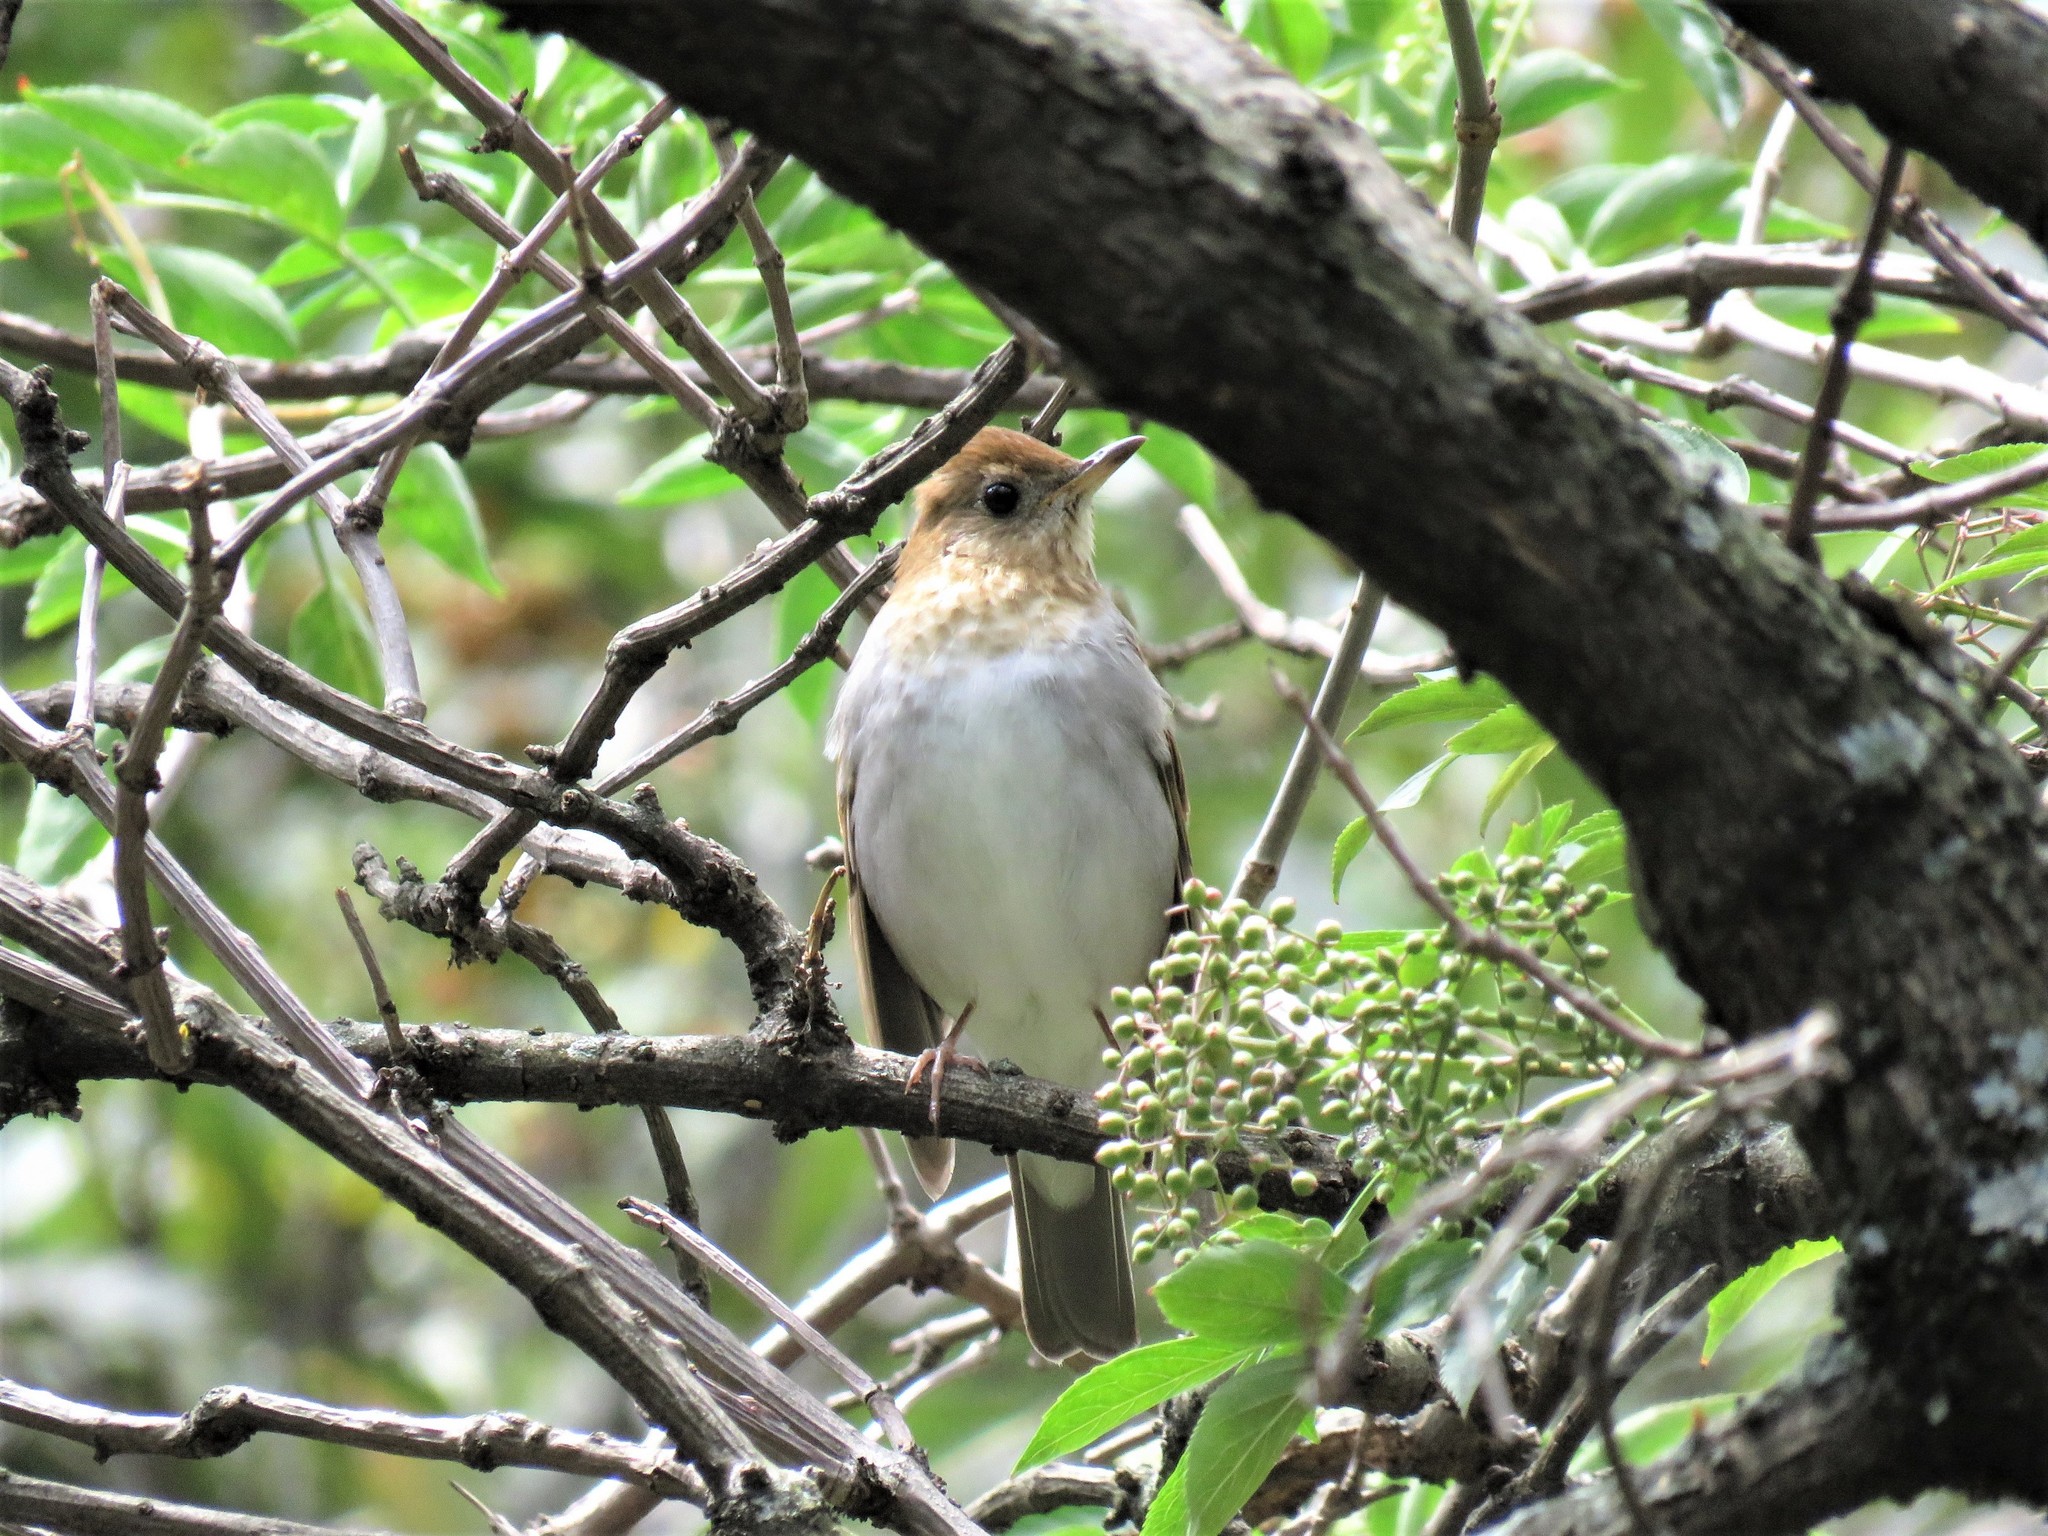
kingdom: Animalia
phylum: Chordata
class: Aves
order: Passeriformes
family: Turdidae
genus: Catharus
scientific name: Catharus fuscescens
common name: Veery
